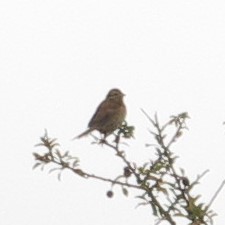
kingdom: Animalia
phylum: Chordata
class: Aves
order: Passeriformes
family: Emberizidae
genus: Emberiza
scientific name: Emberiza cirlus
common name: Cirl bunting
